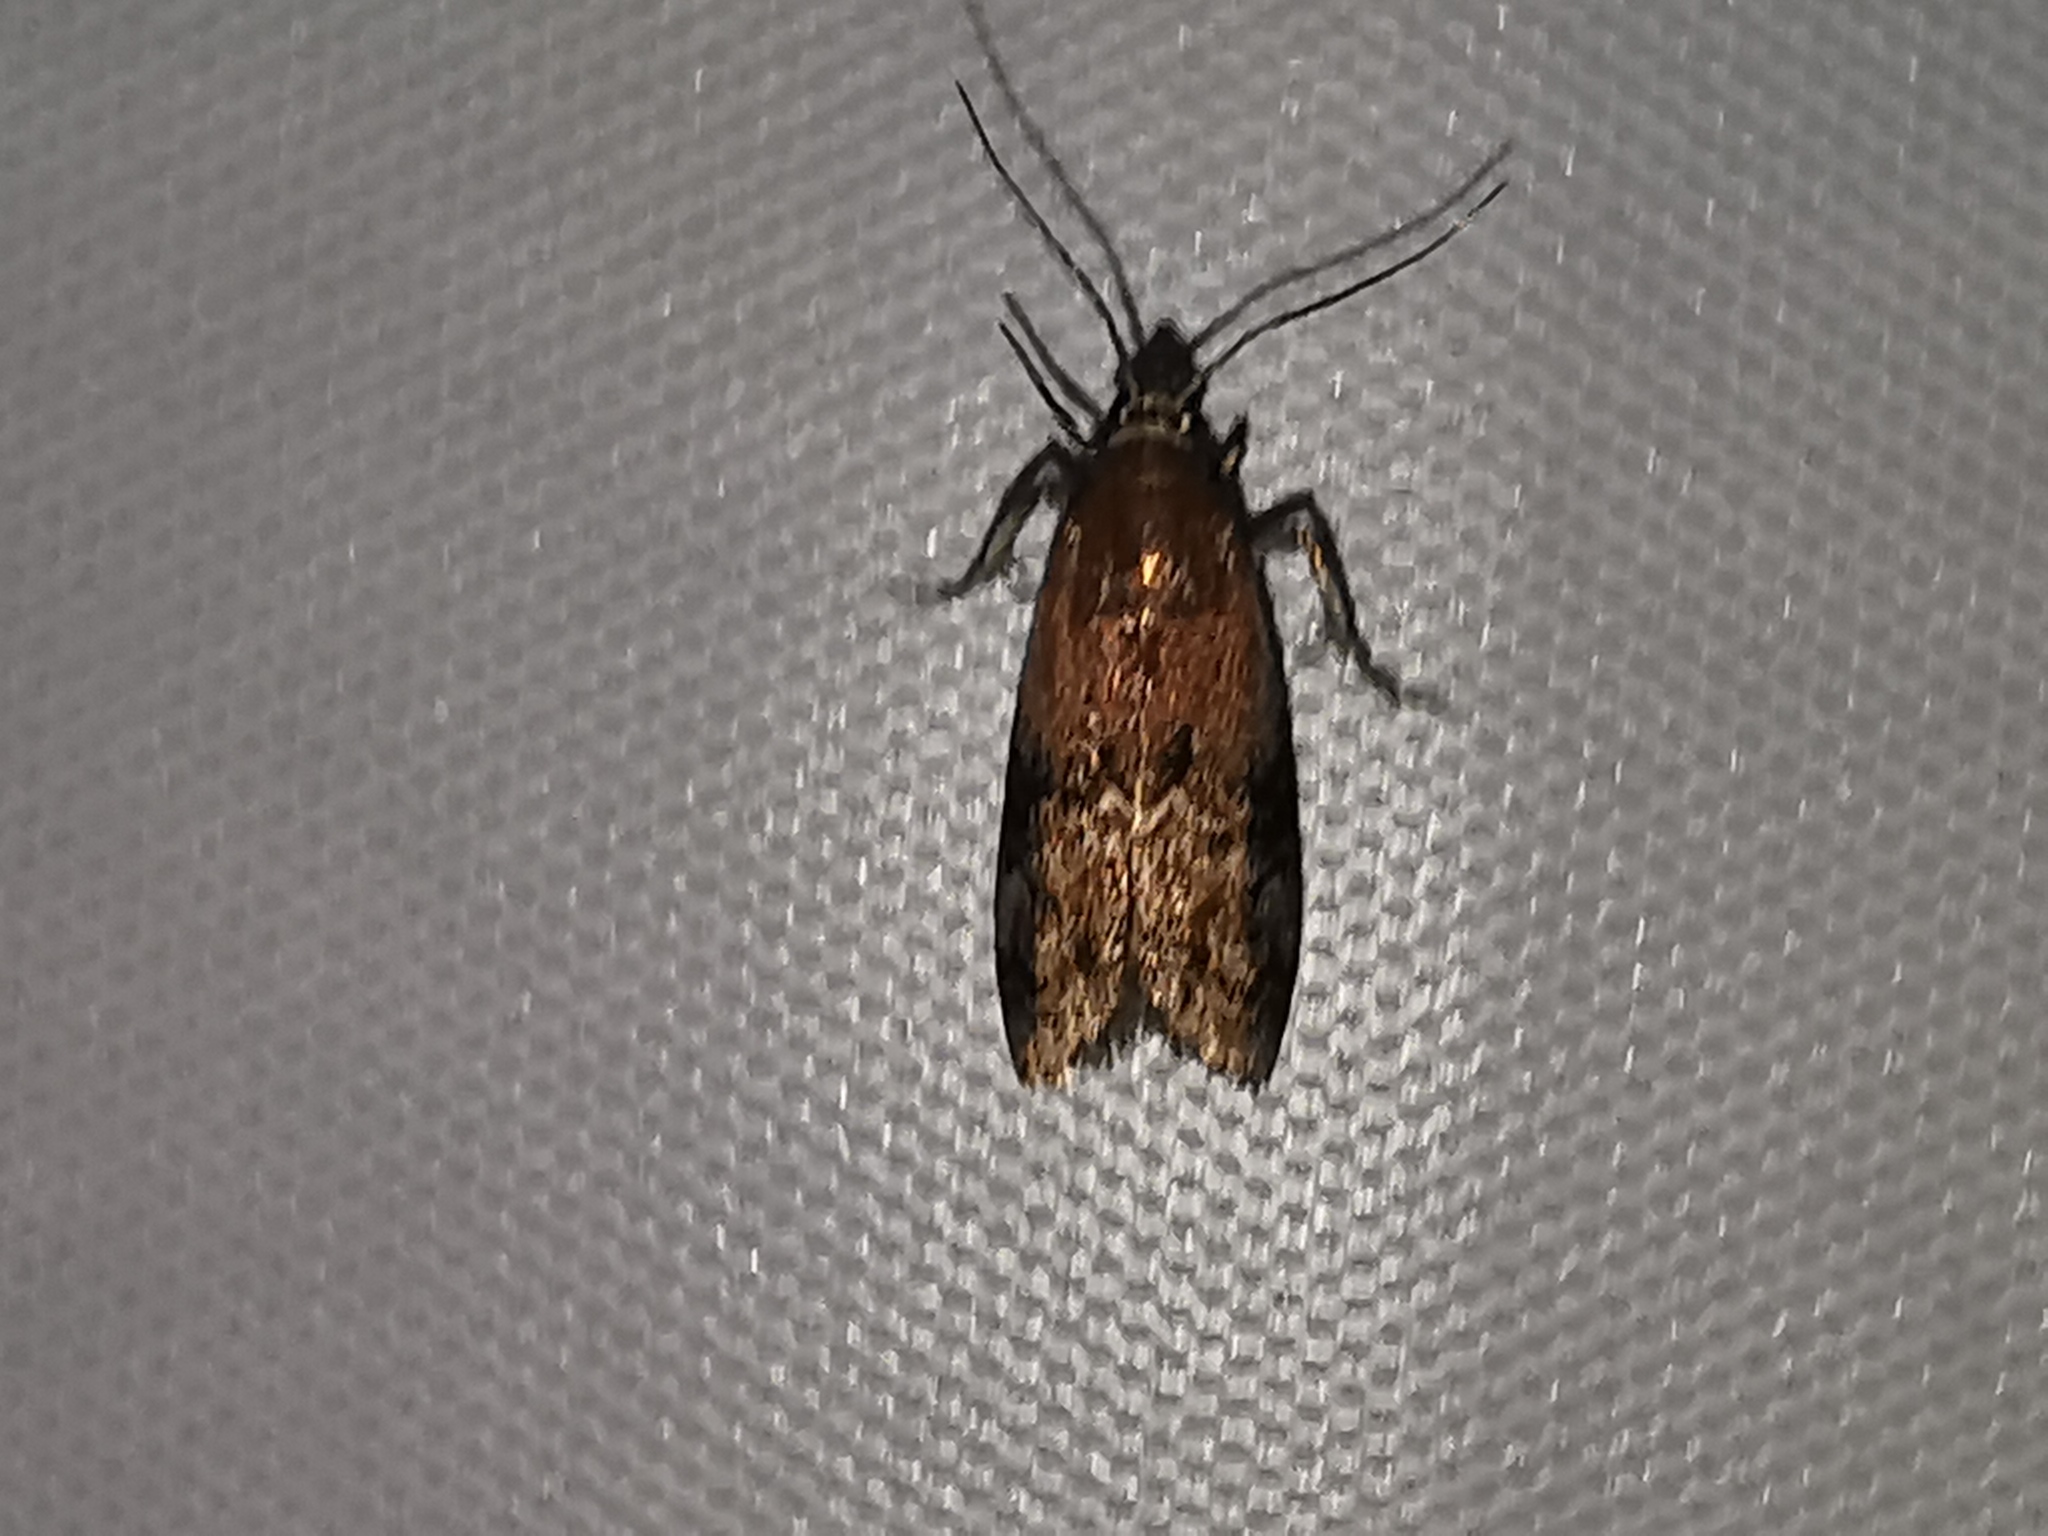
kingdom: Animalia
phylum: Arthropoda
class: Insecta
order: Lepidoptera
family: Pyralidae
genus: Sciota
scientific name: Sciota adelphella
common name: Willow knot-horn
